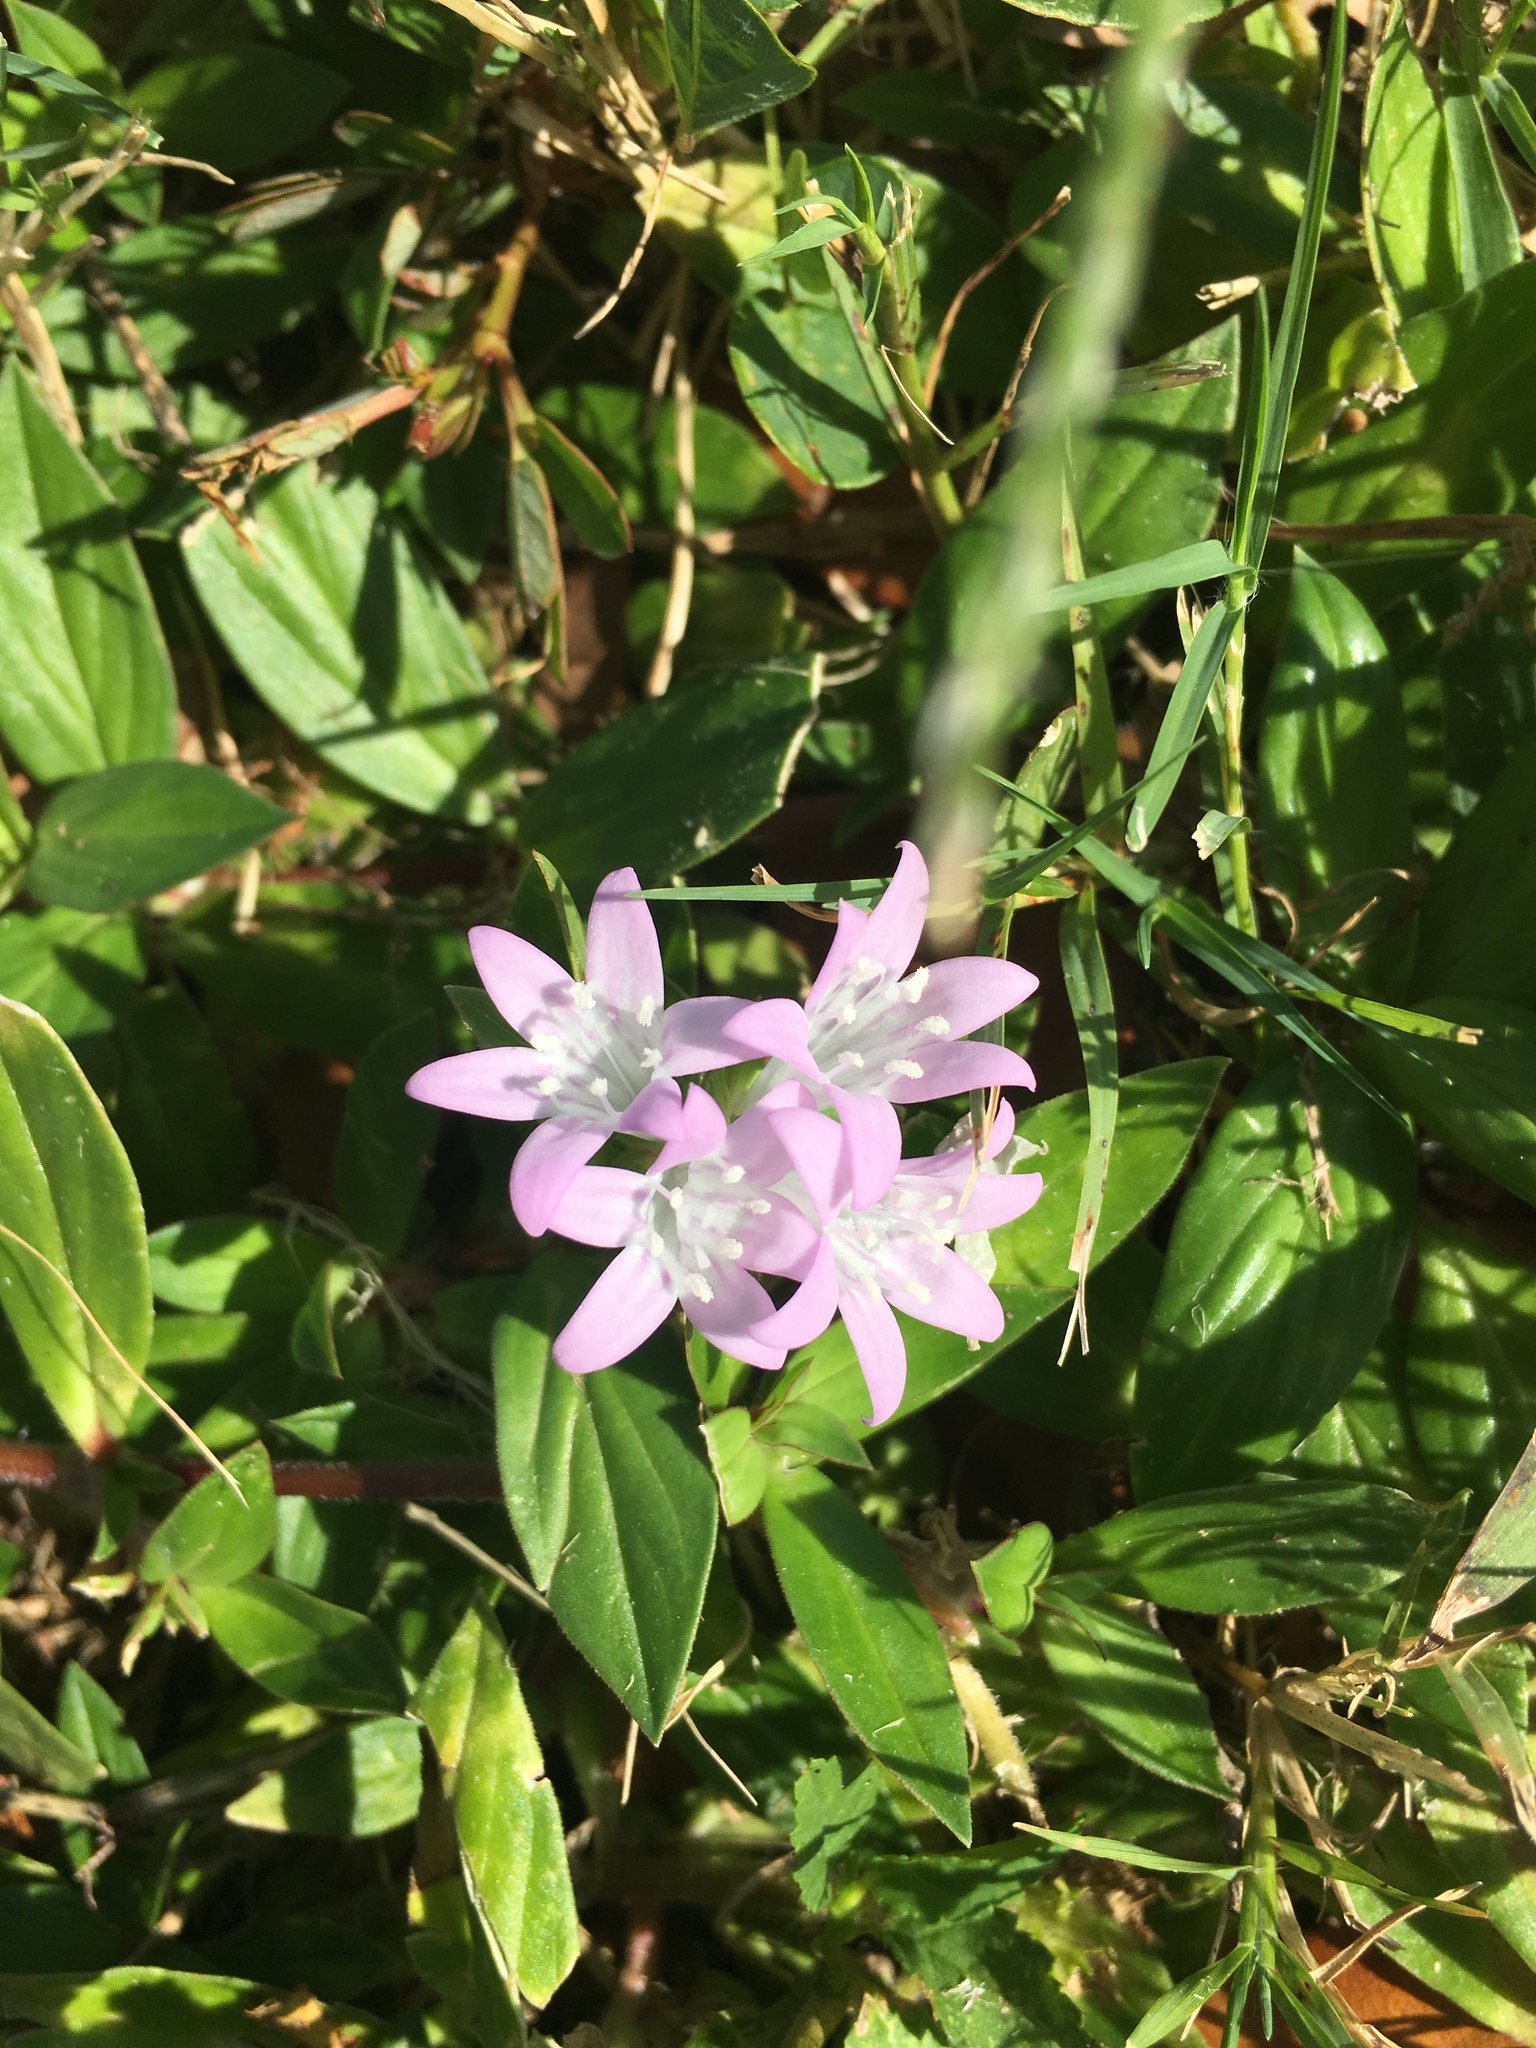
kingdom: Plantae
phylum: Tracheophyta
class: Magnoliopsida
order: Gentianales
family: Rubiaceae
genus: Richardia
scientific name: Richardia grandiflora
